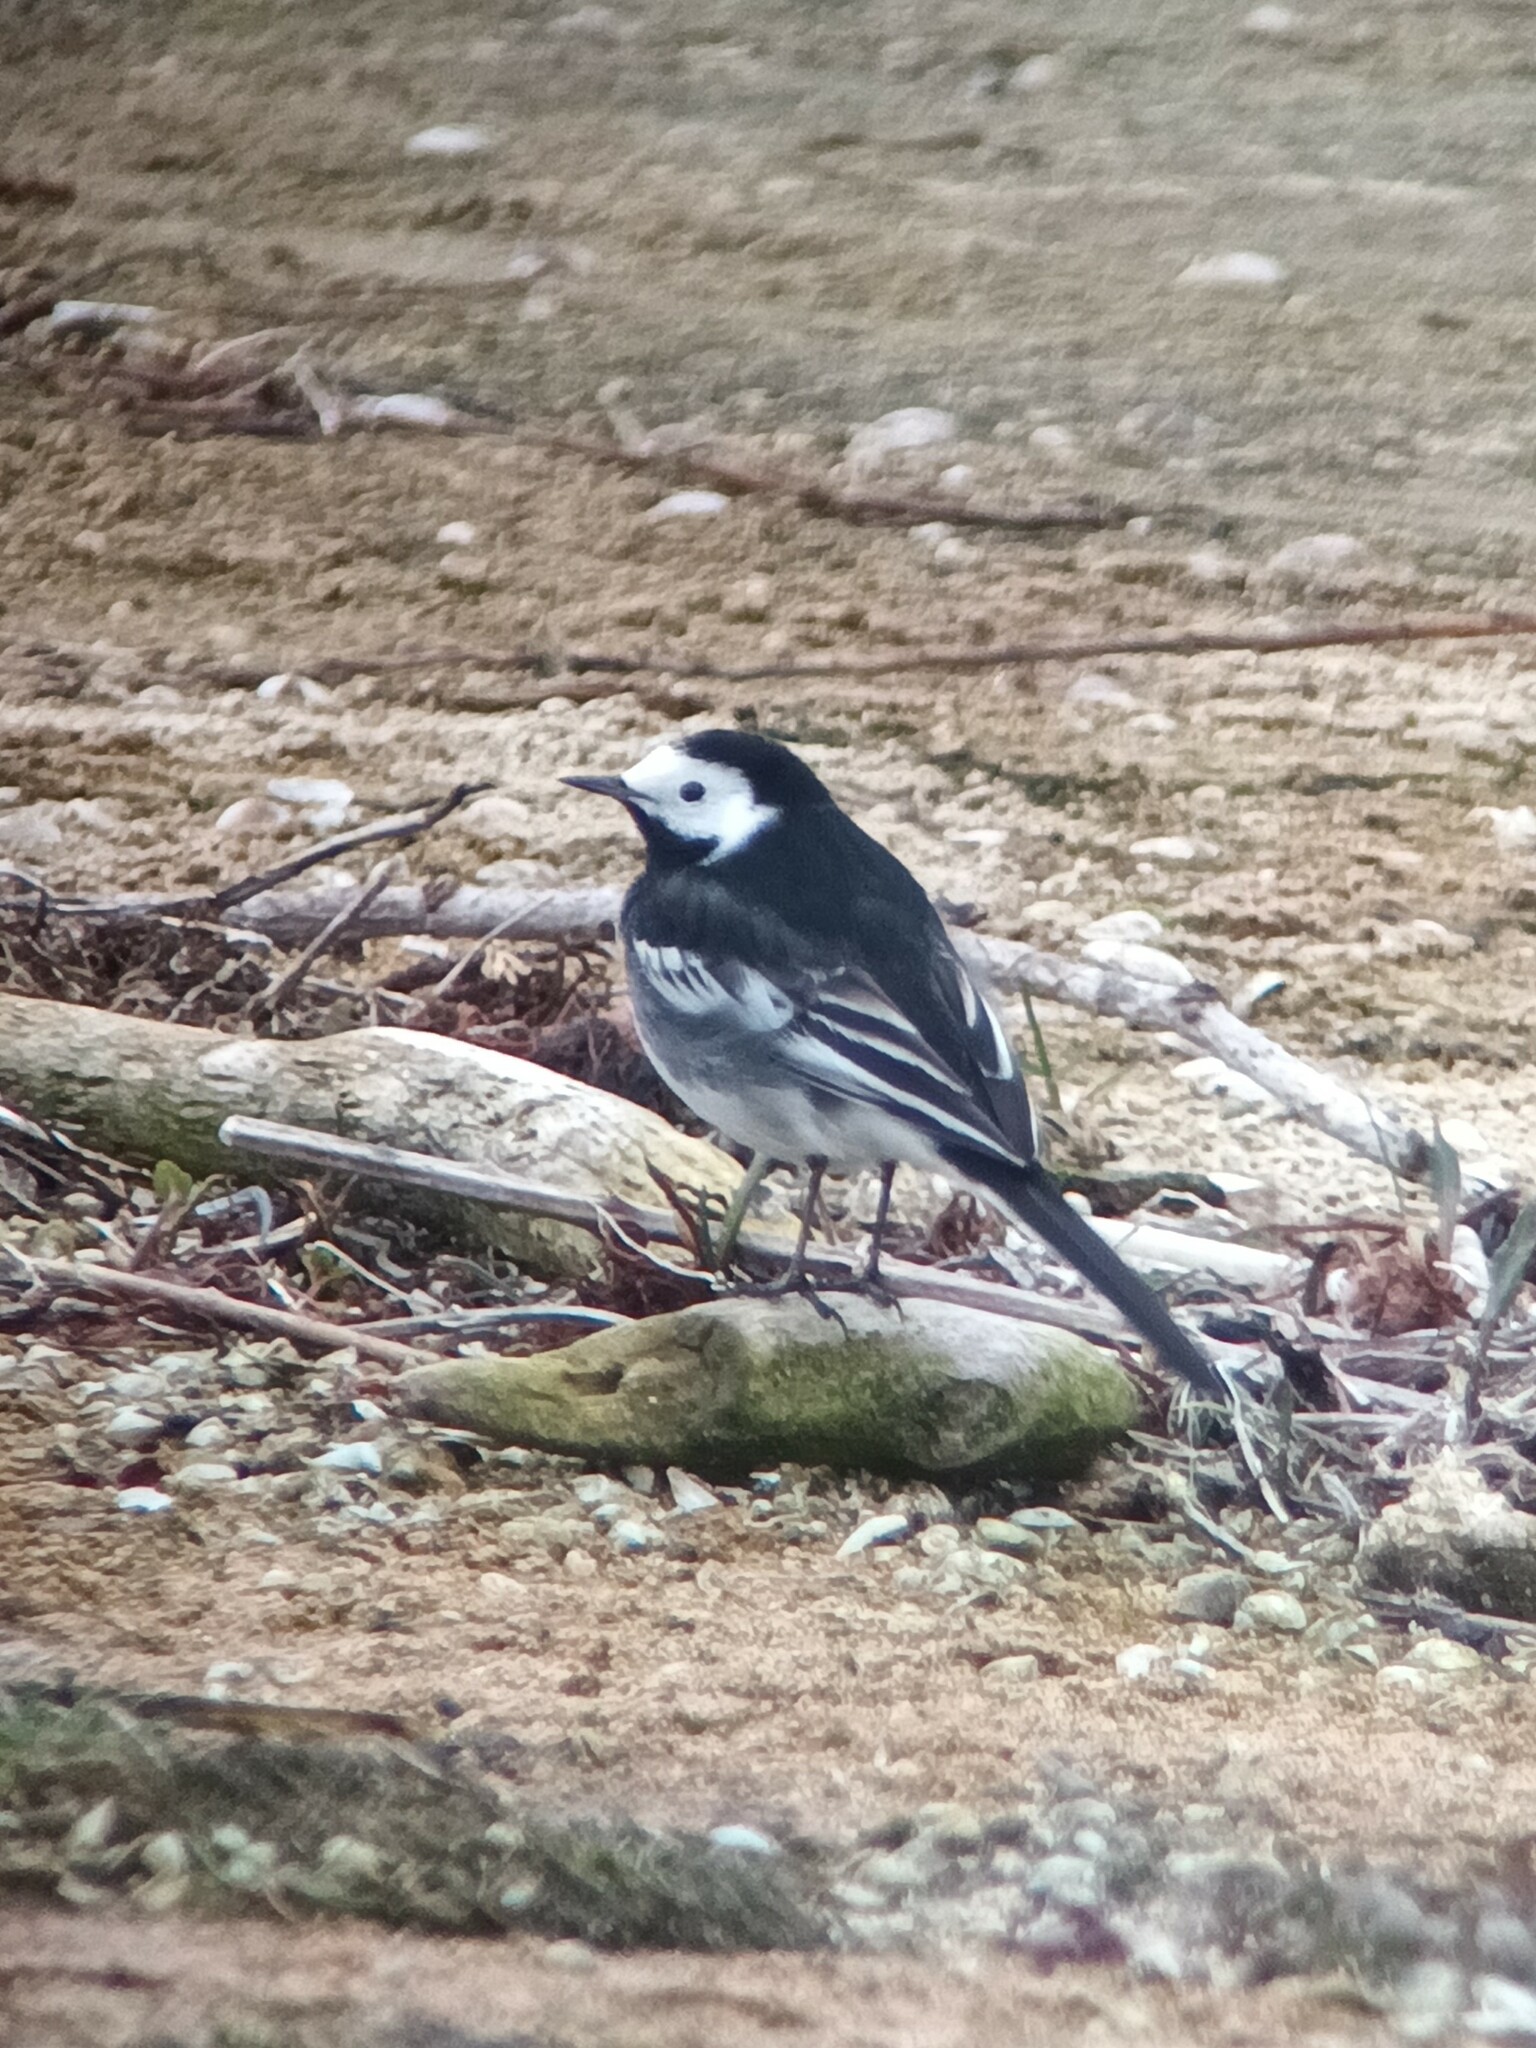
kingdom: Animalia
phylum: Chordata
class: Aves
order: Passeriformes
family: Motacillidae
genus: Motacilla
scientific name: Motacilla alba
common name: White wagtail
